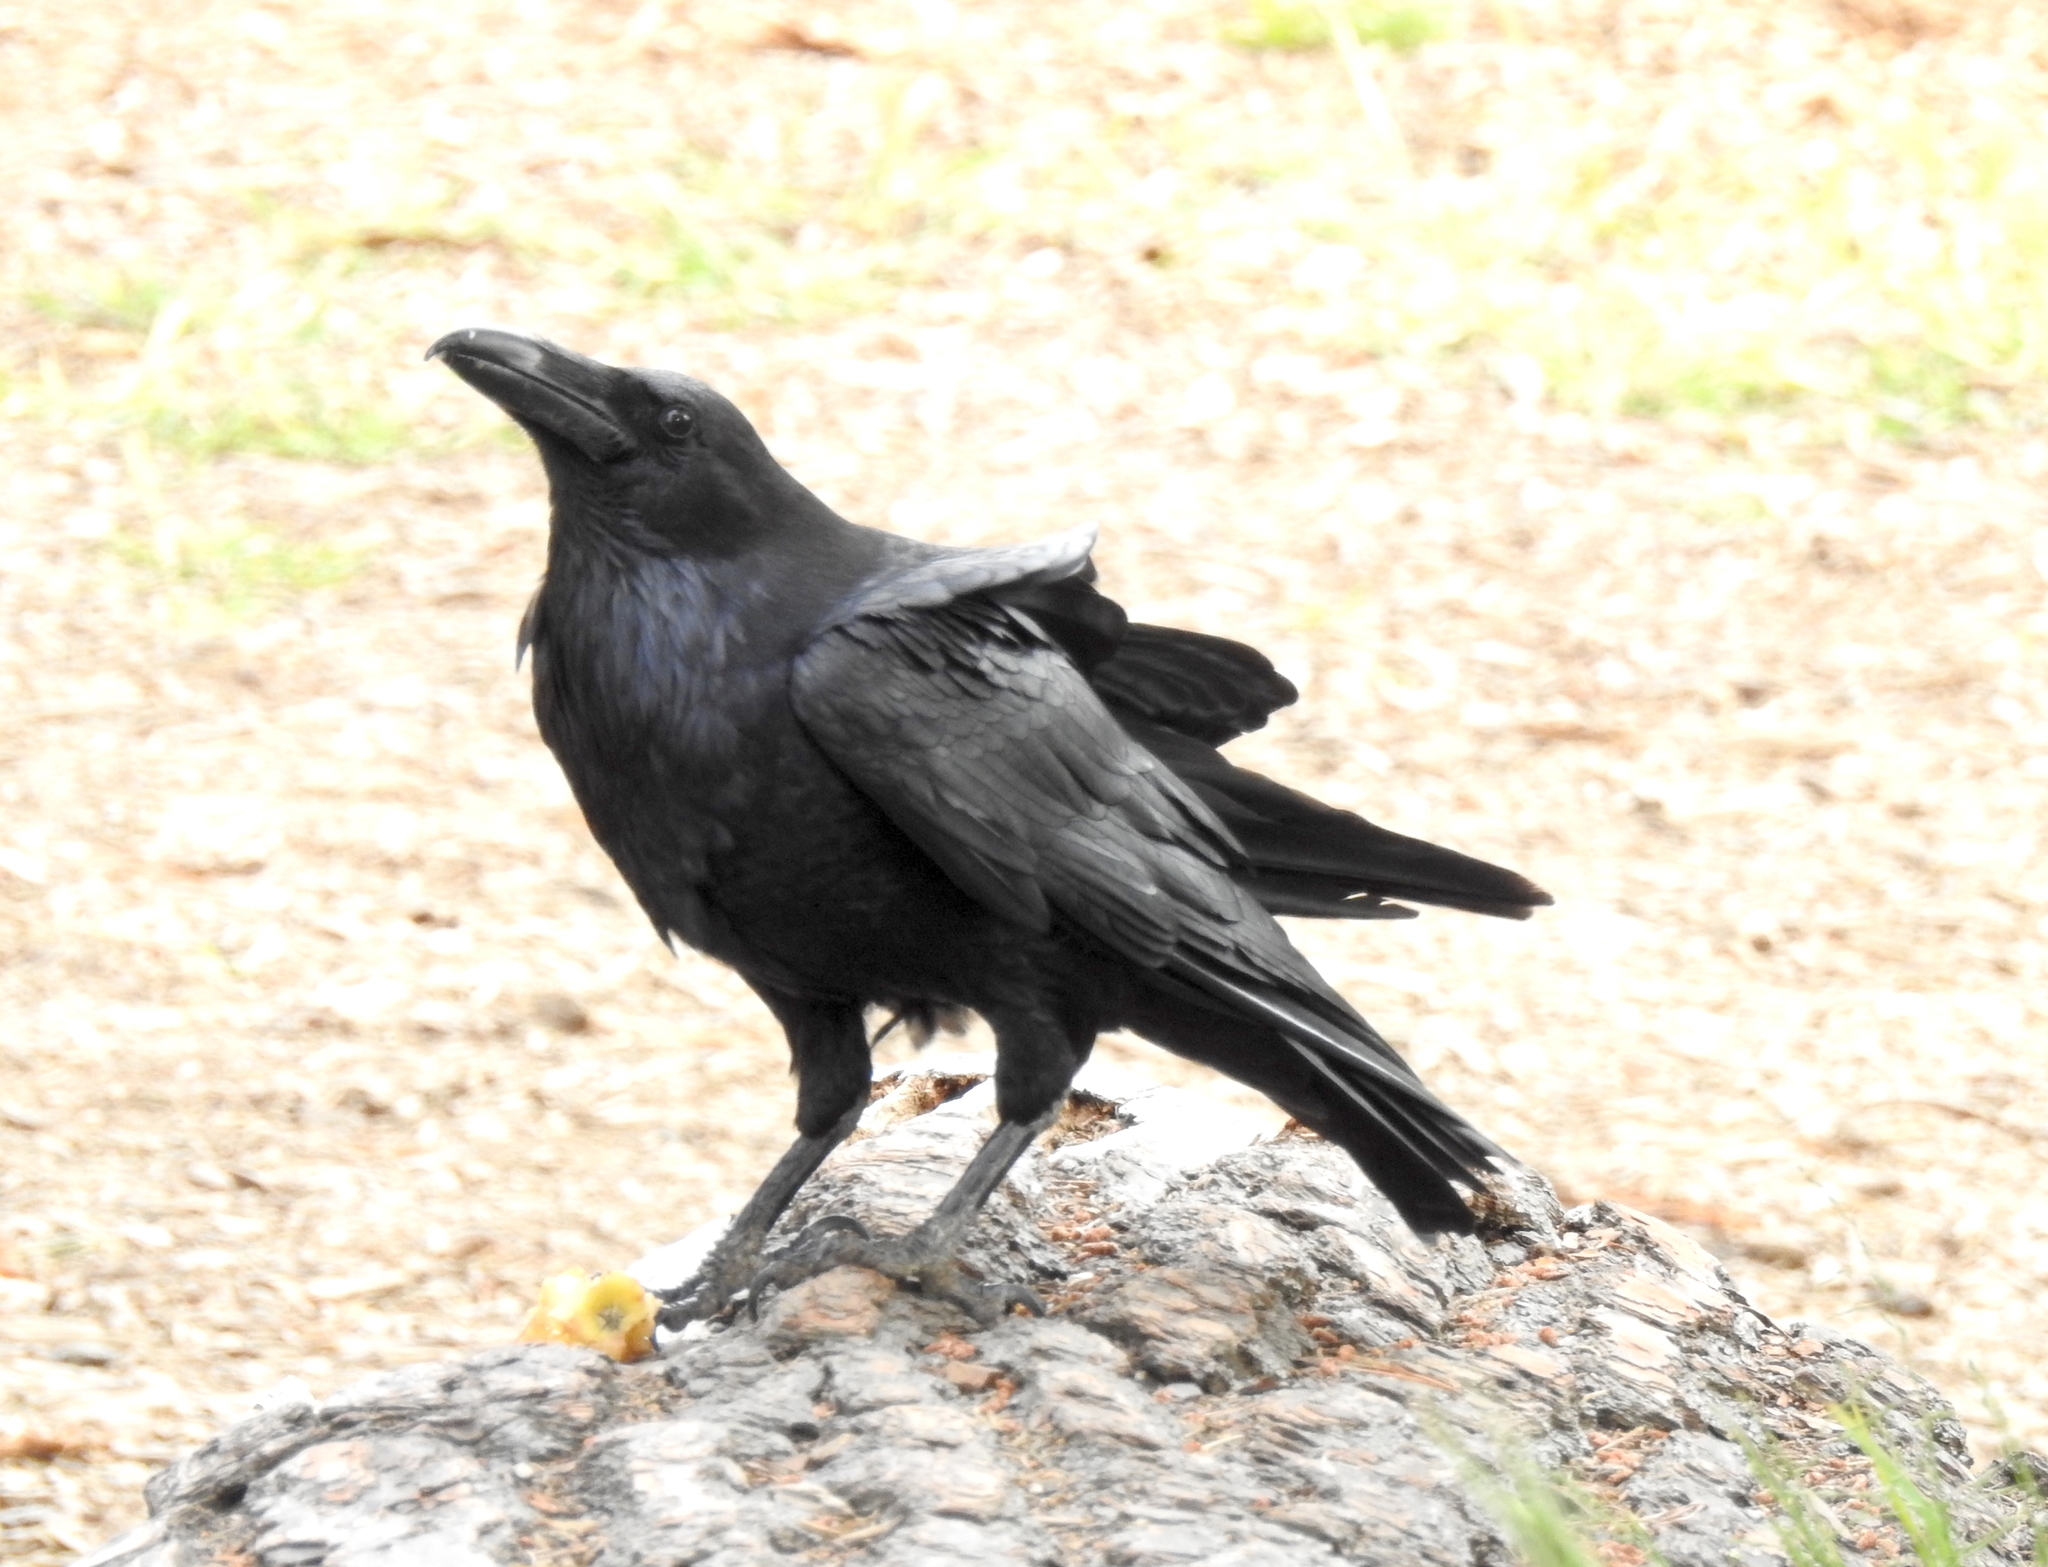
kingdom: Animalia
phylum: Chordata
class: Aves
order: Passeriformes
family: Corvidae
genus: Corvus
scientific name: Corvus corax
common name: Common raven
